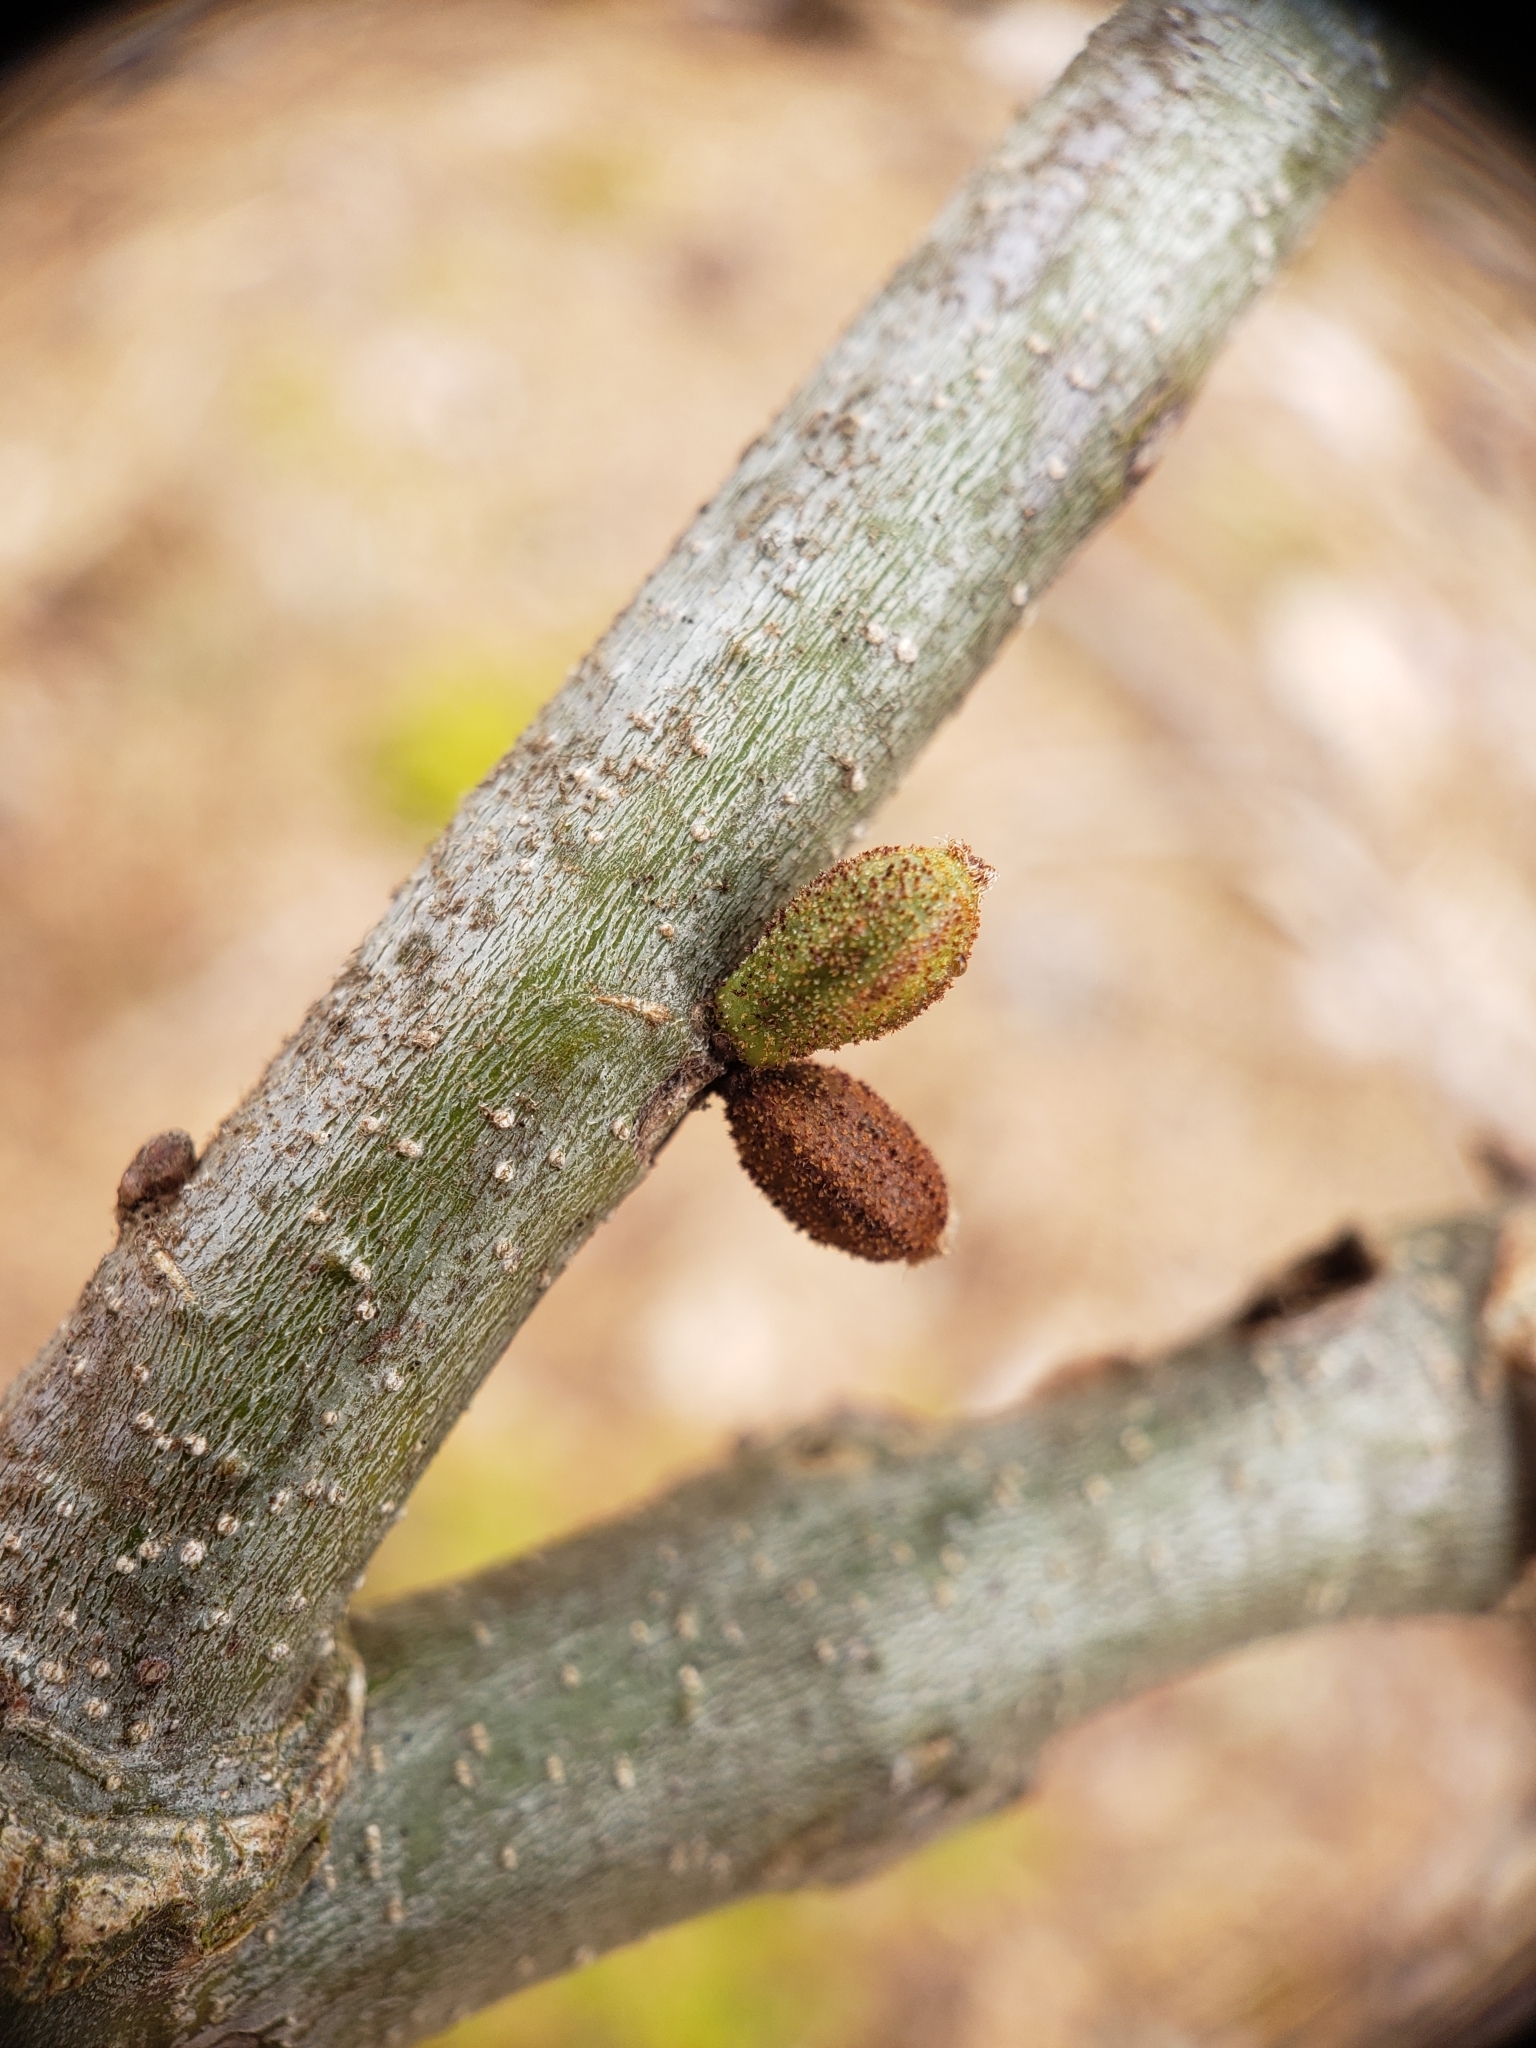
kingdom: Animalia
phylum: Arthropoda
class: Insecta
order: Hymenoptera
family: Cynipidae
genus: Callirhytis
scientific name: Callirhytis
